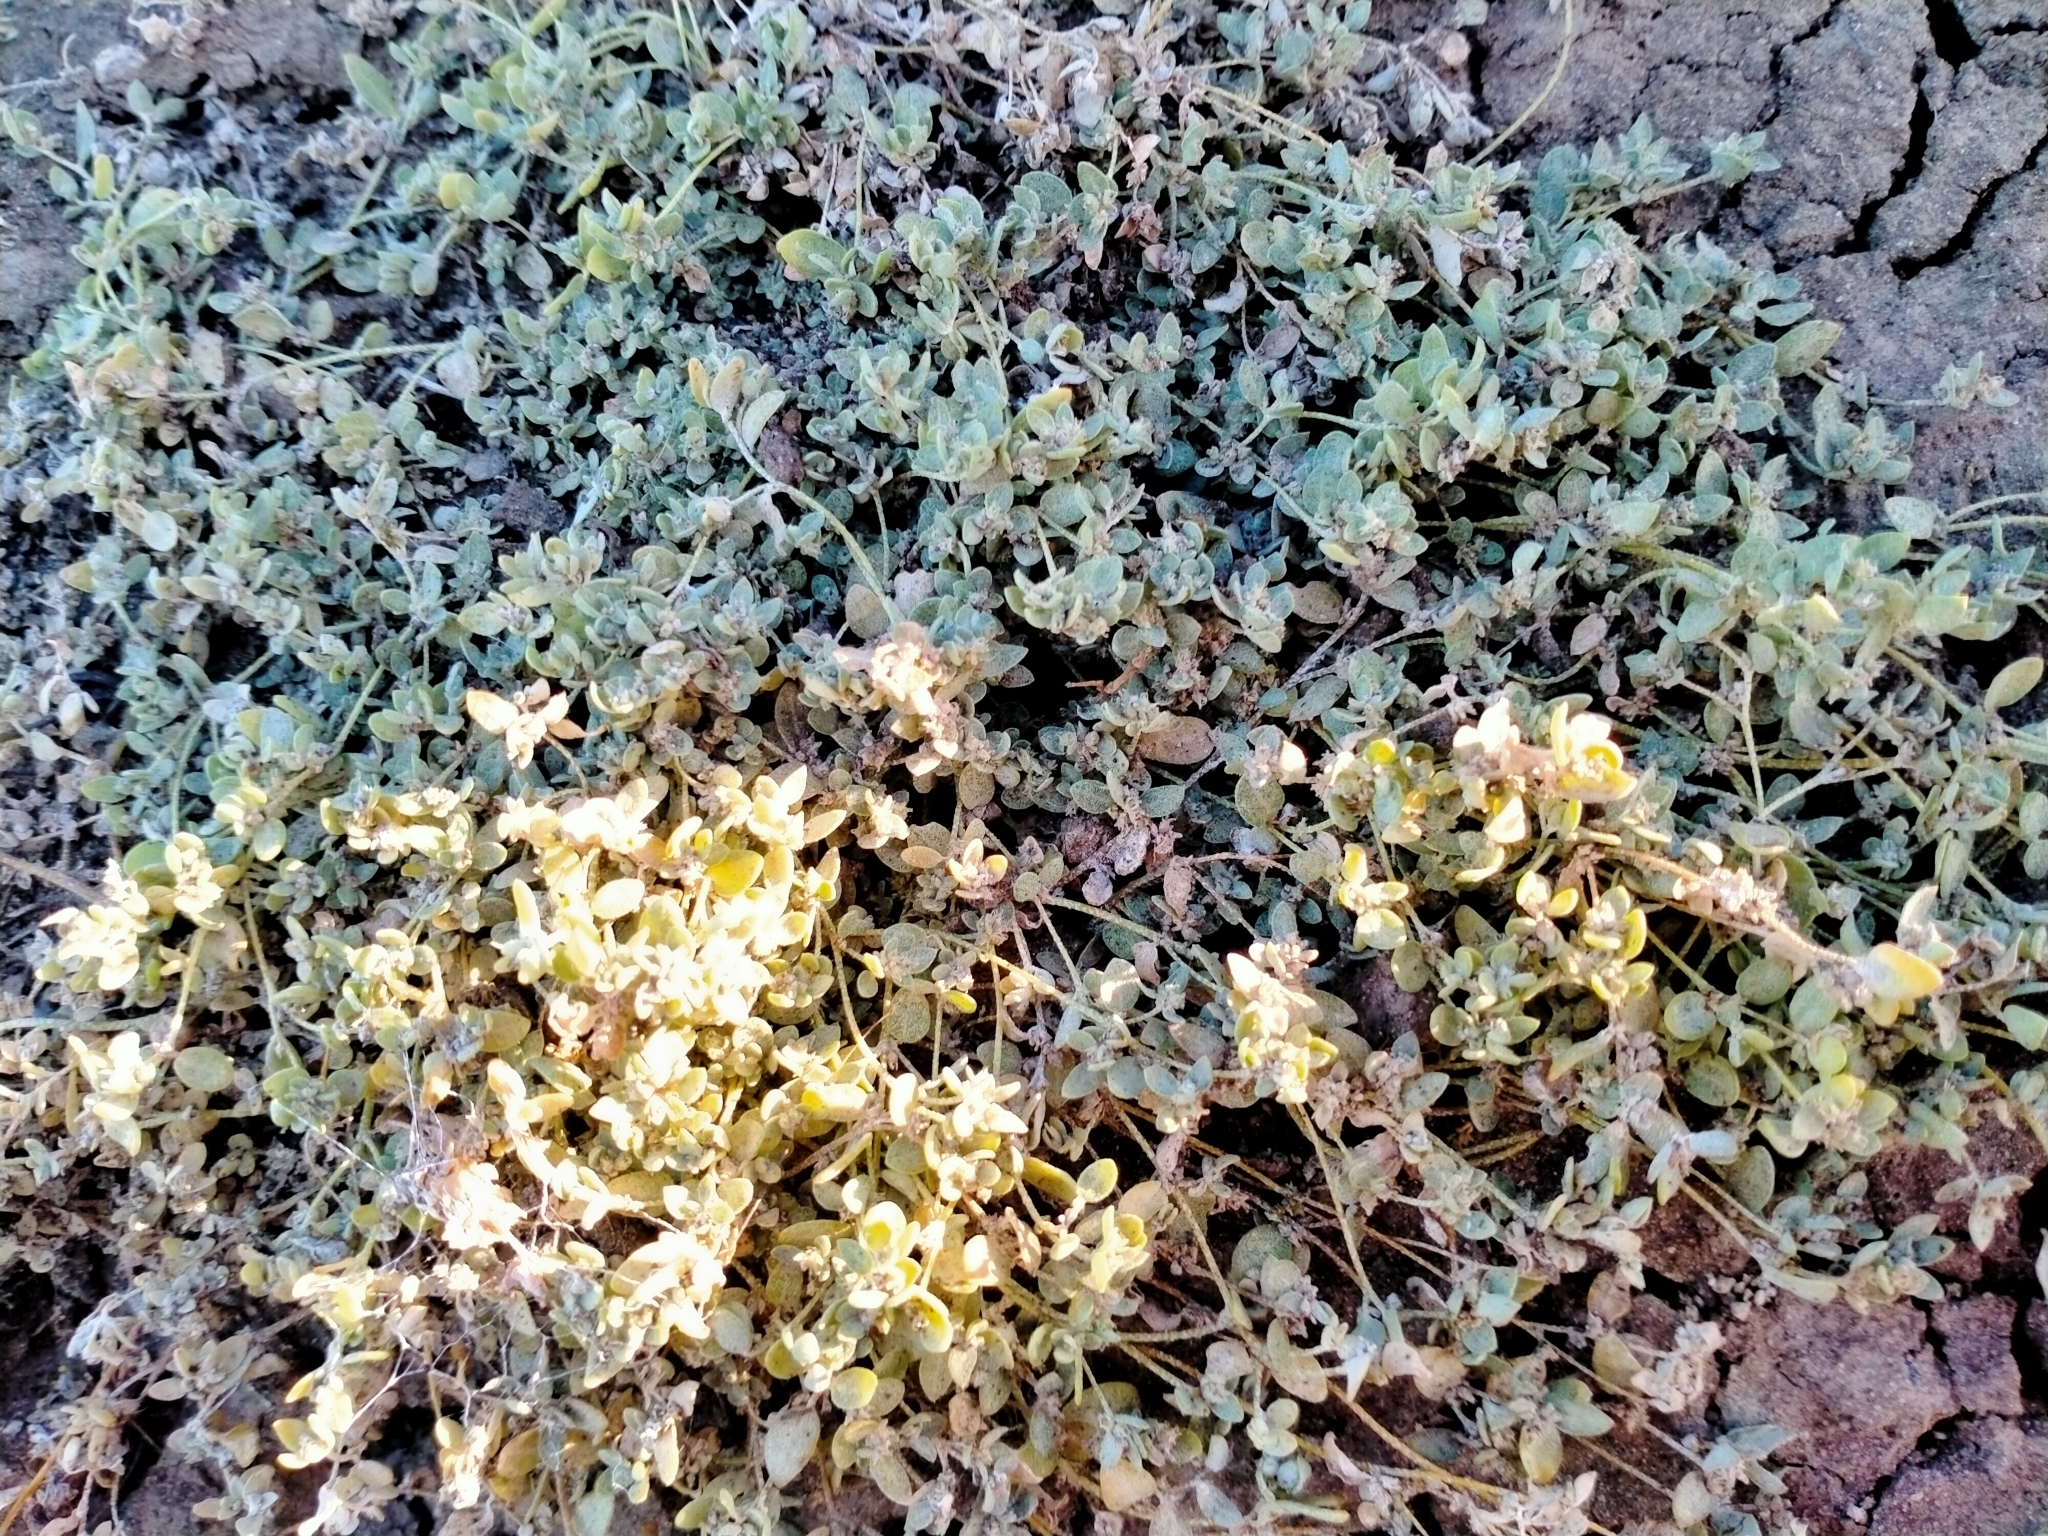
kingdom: Plantae
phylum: Tracheophyta
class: Magnoliopsida
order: Caryophyllales
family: Amaranthaceae
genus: Atriplex
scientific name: Atriplex buchananii
